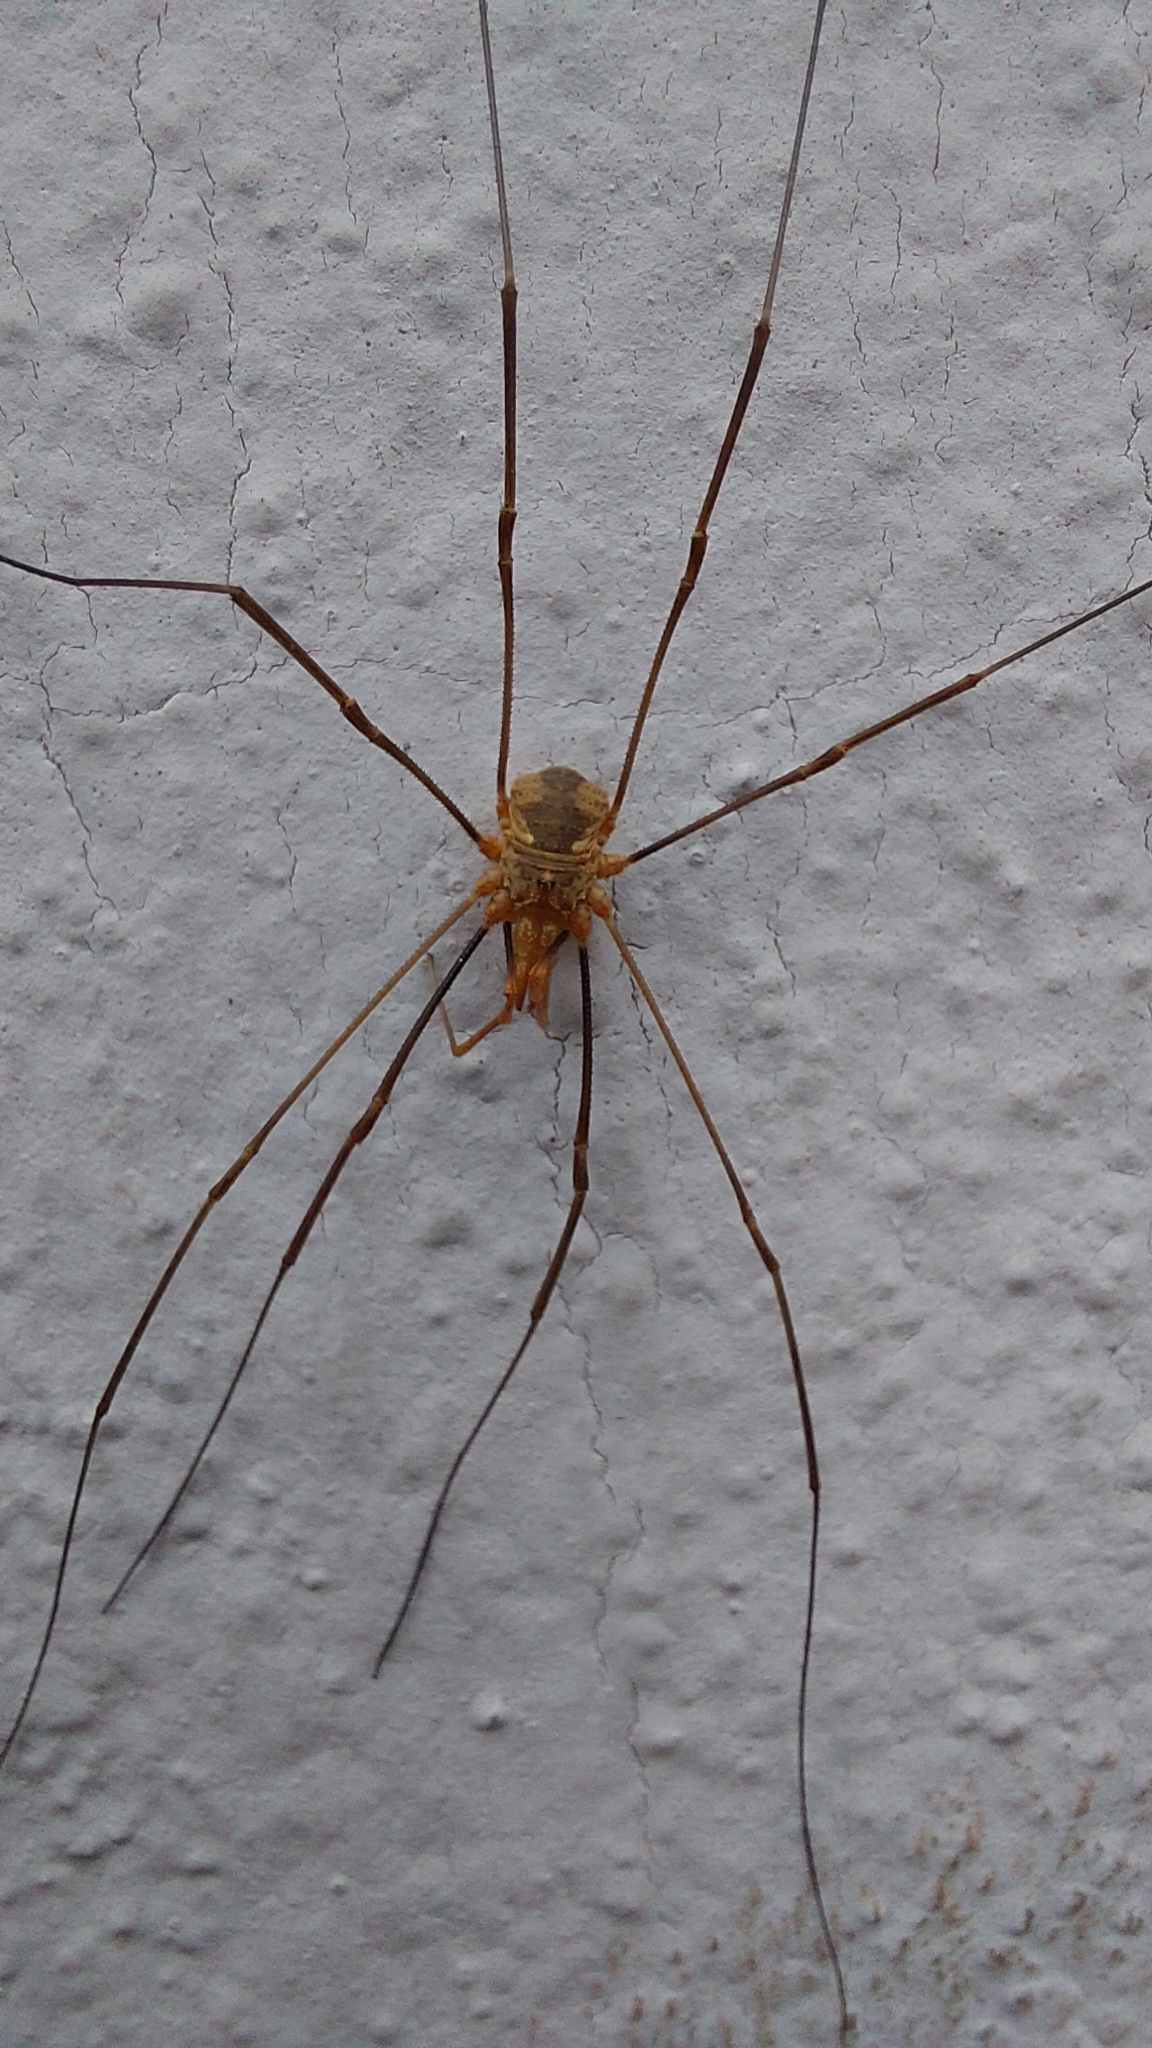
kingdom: Animalia
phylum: Arthropoda
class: Arachnida
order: Opiliones
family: Phalangiidae
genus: Phalangium
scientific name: Phalangium opilio
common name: Daddy longleg
